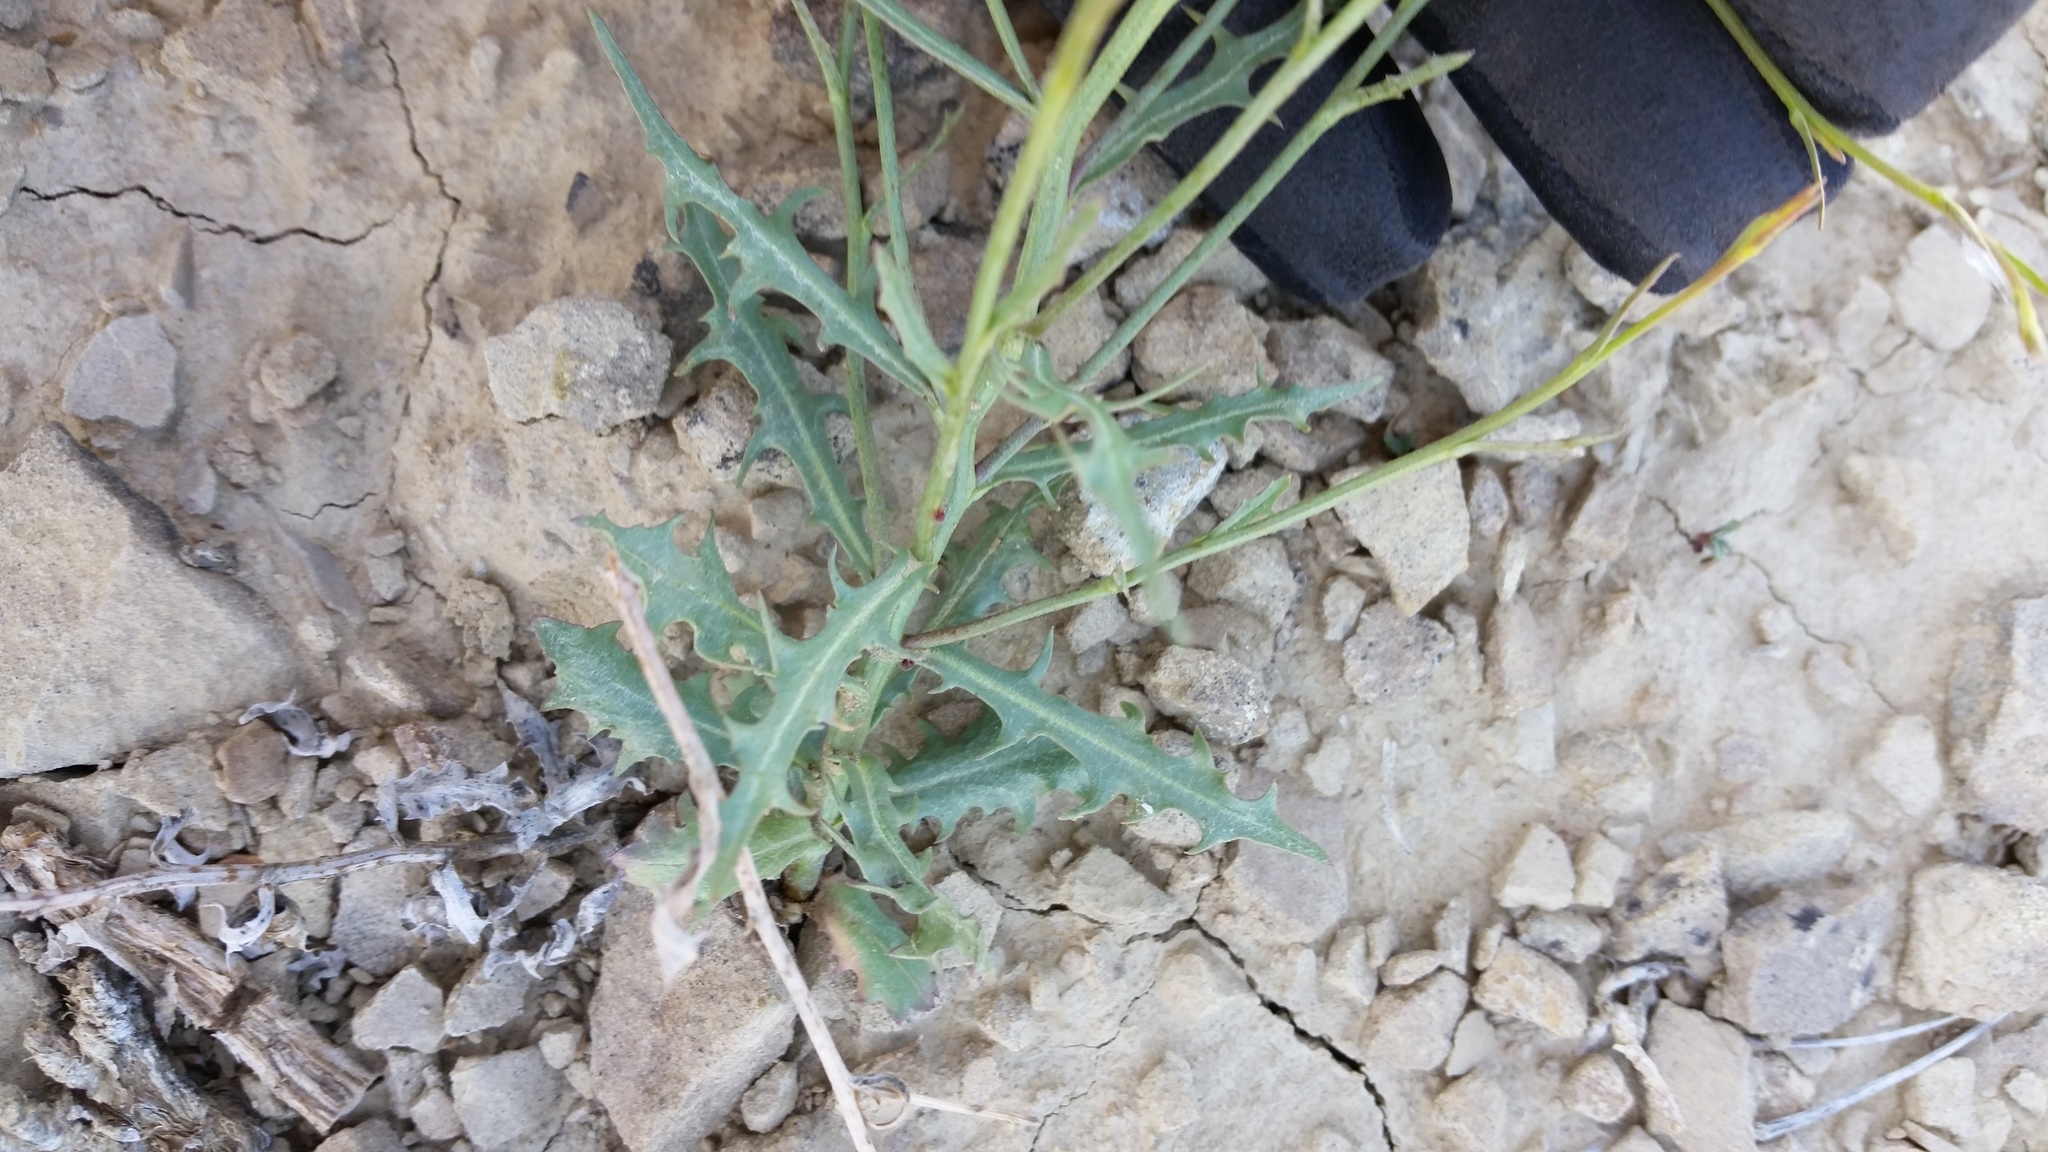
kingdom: Plantae
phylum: Tracheophyta
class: Magnoliopsida
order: Asterales
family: Asteraceae
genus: Stephanomeria
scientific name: Stephanomeria runcinata
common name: Desert wirelettuce
